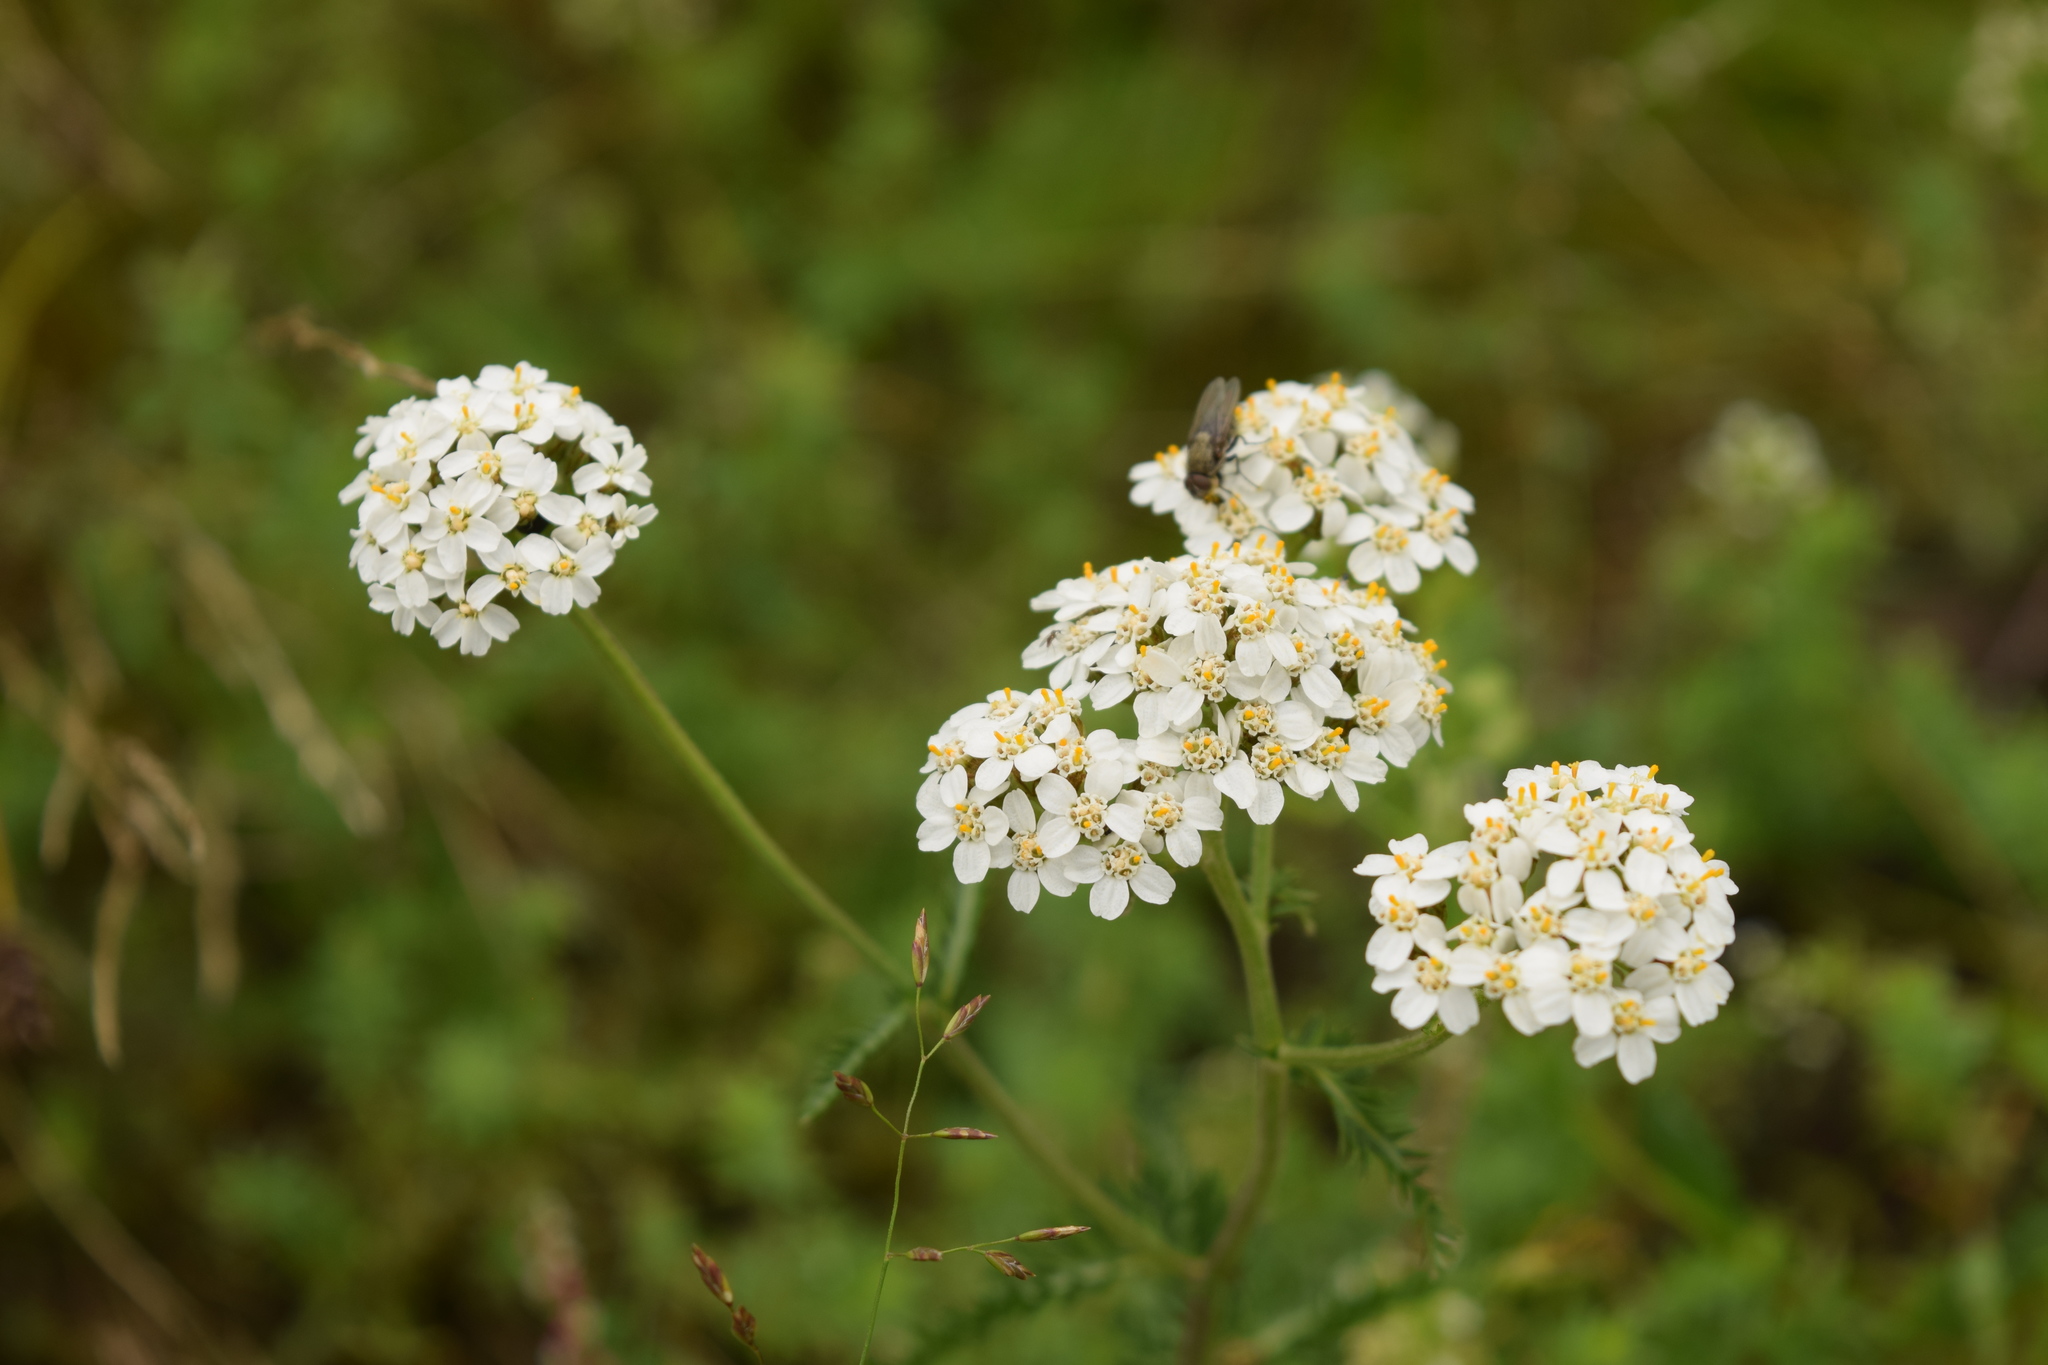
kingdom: Plantae
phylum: Tracheophyta
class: Magnoliopsida
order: Asterales
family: Asteraceae
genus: Achillea
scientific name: Achillea millefolium
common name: Yarrow
